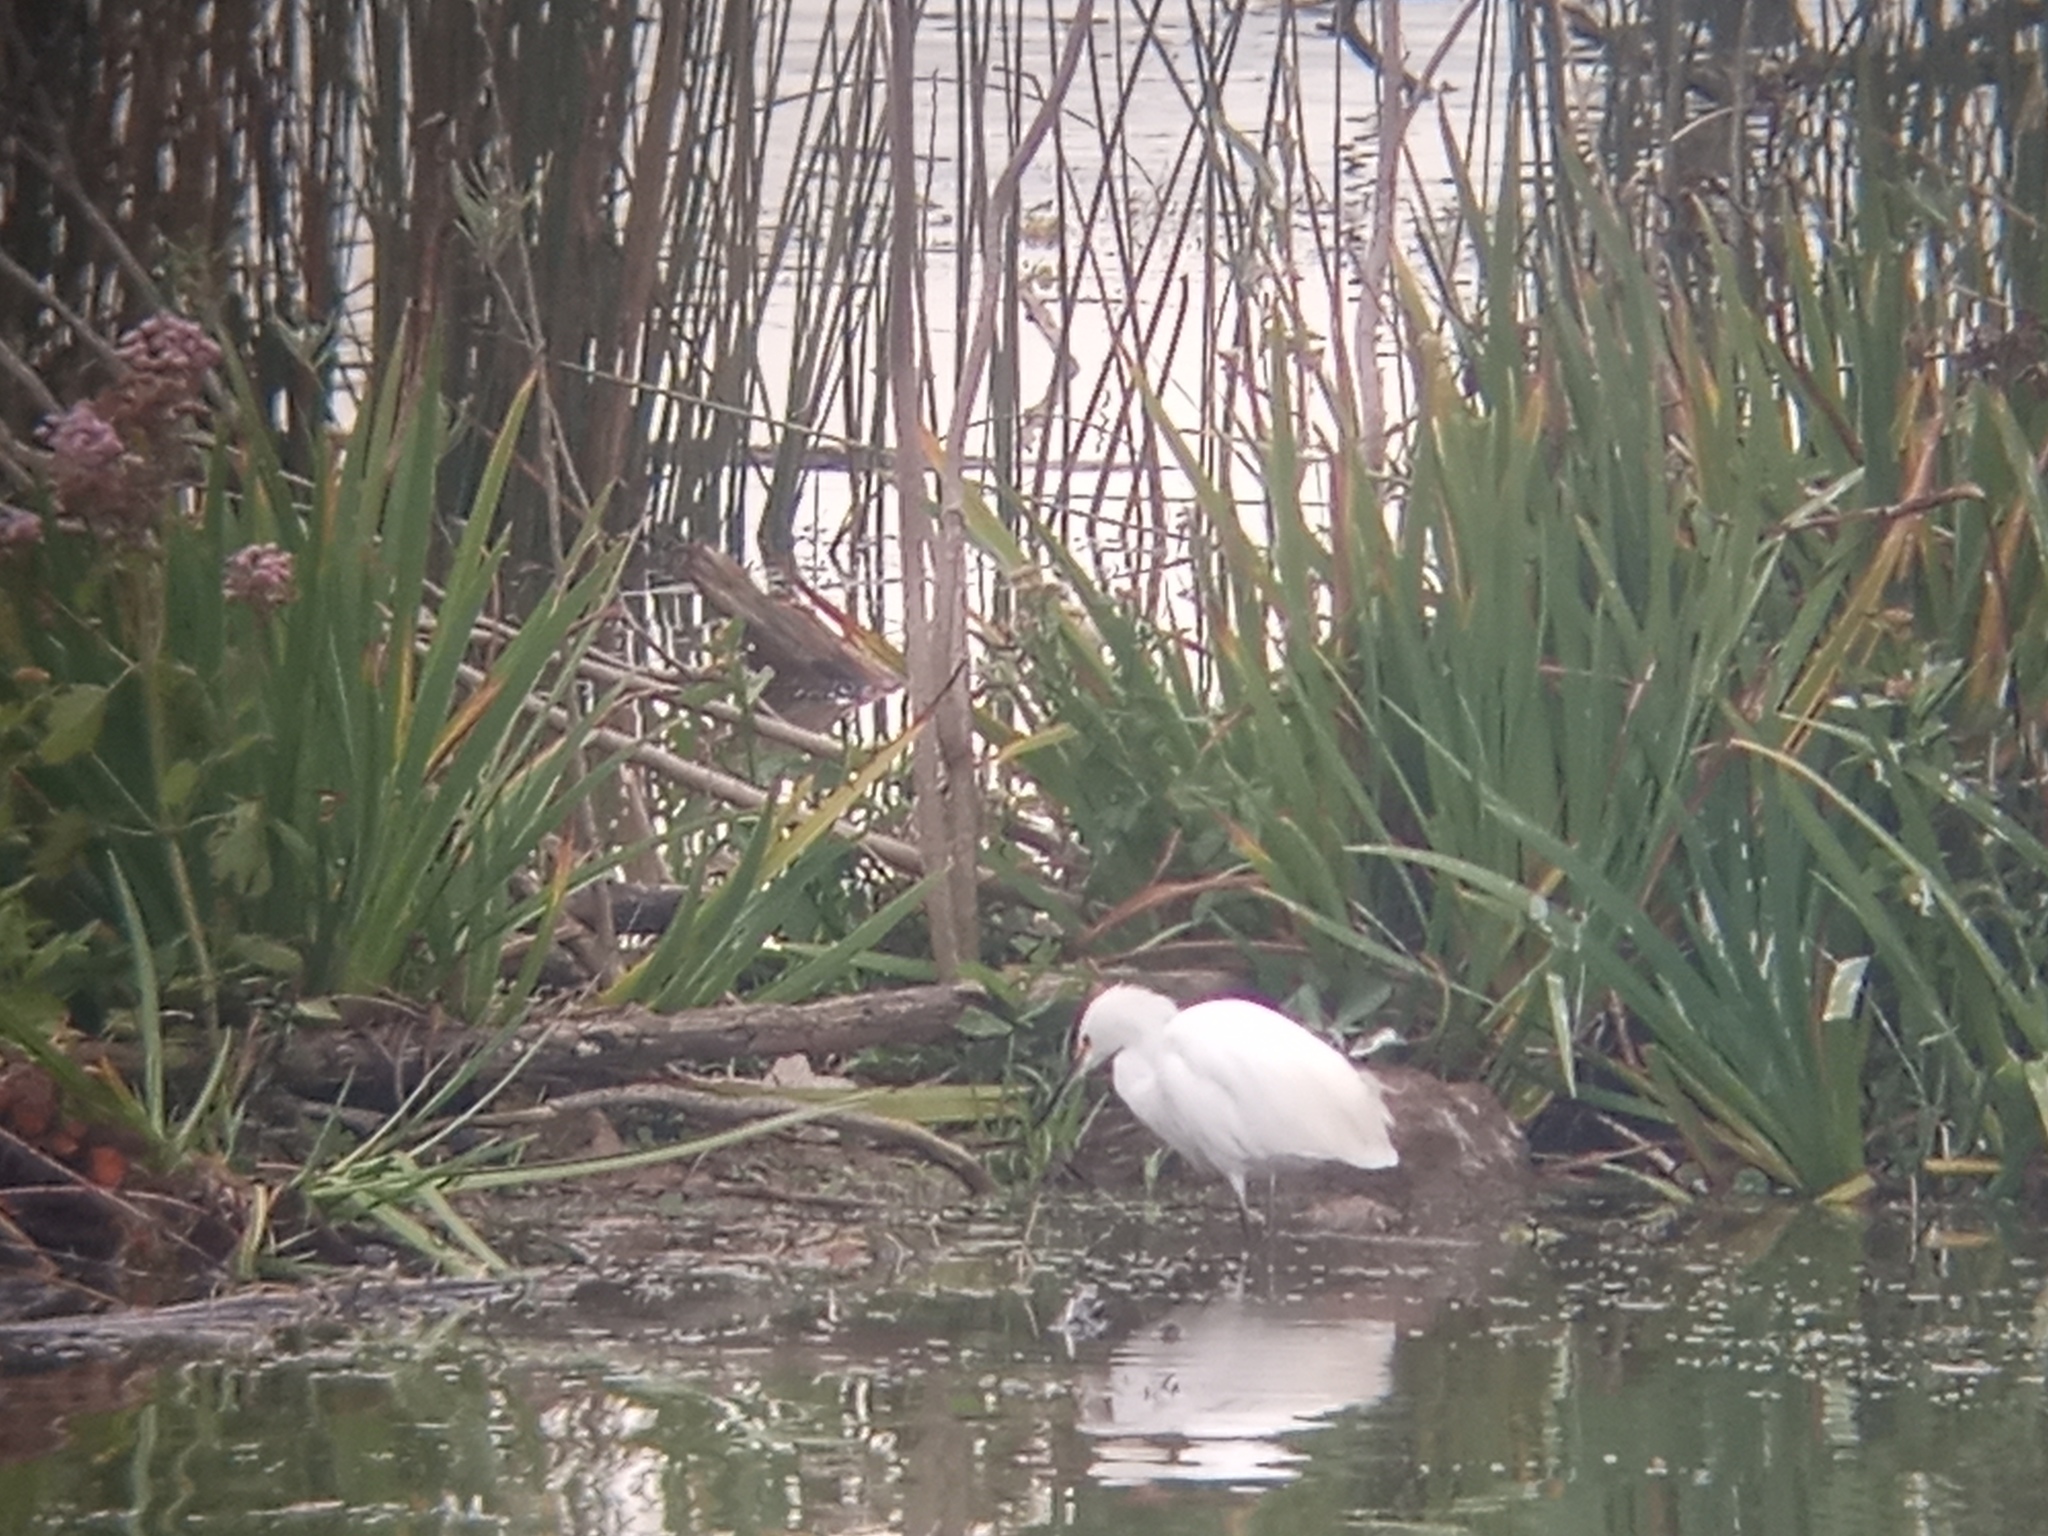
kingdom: Animalia
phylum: Chordata
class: Aves
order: Pelecaniformes
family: Ardeidae
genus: Egretta
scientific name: Egretta thula
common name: Snowy egret
